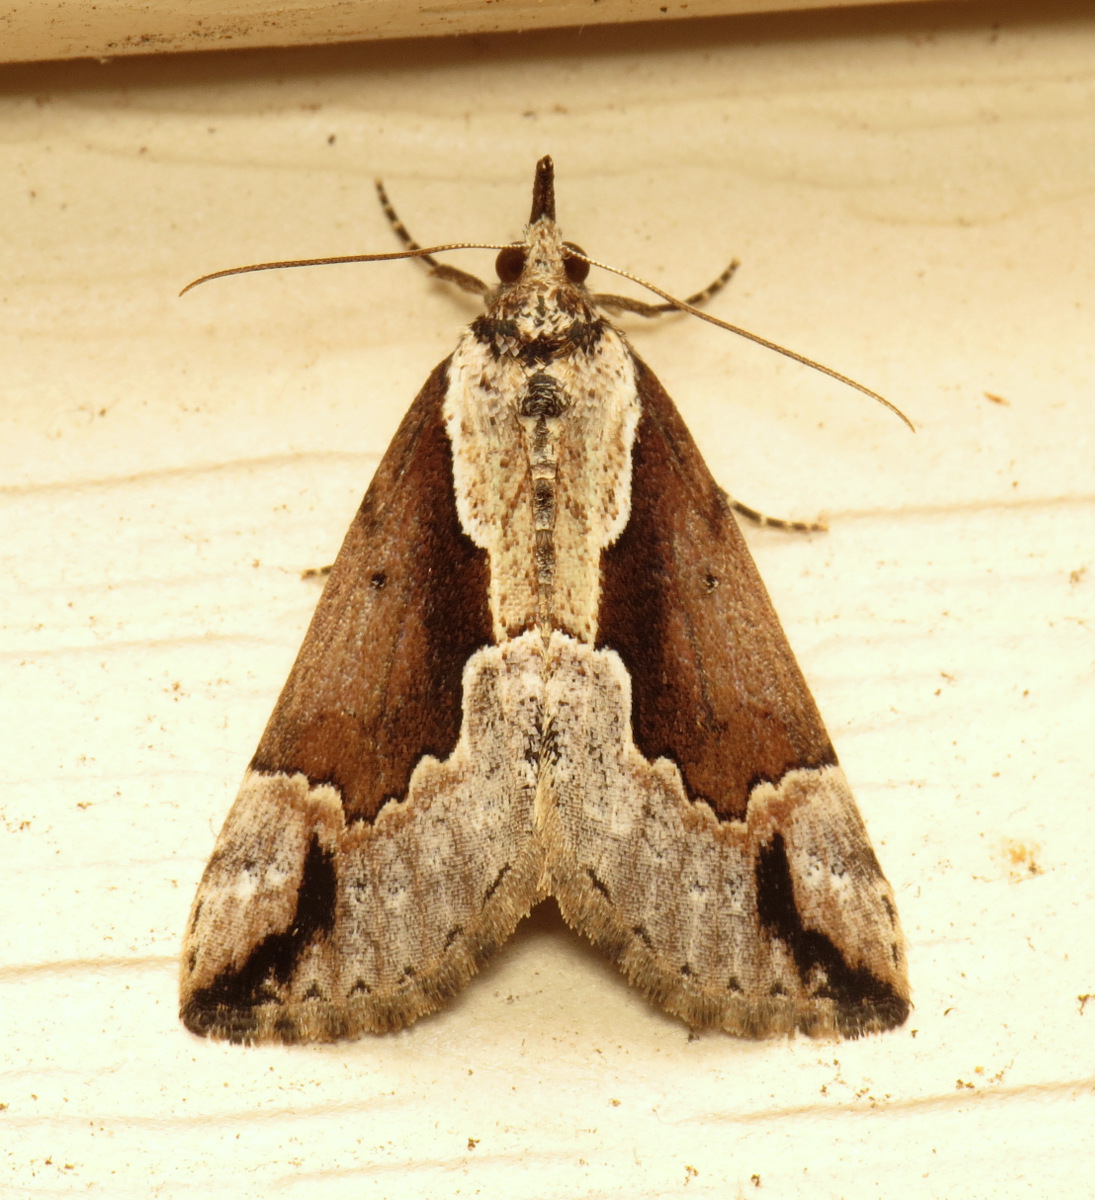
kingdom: Animalia
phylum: Arthropoda
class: Insecta
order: Lepidoptera
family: Erebidae
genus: Hypena
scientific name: Hypena baltimoralis
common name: Baltimore snout
